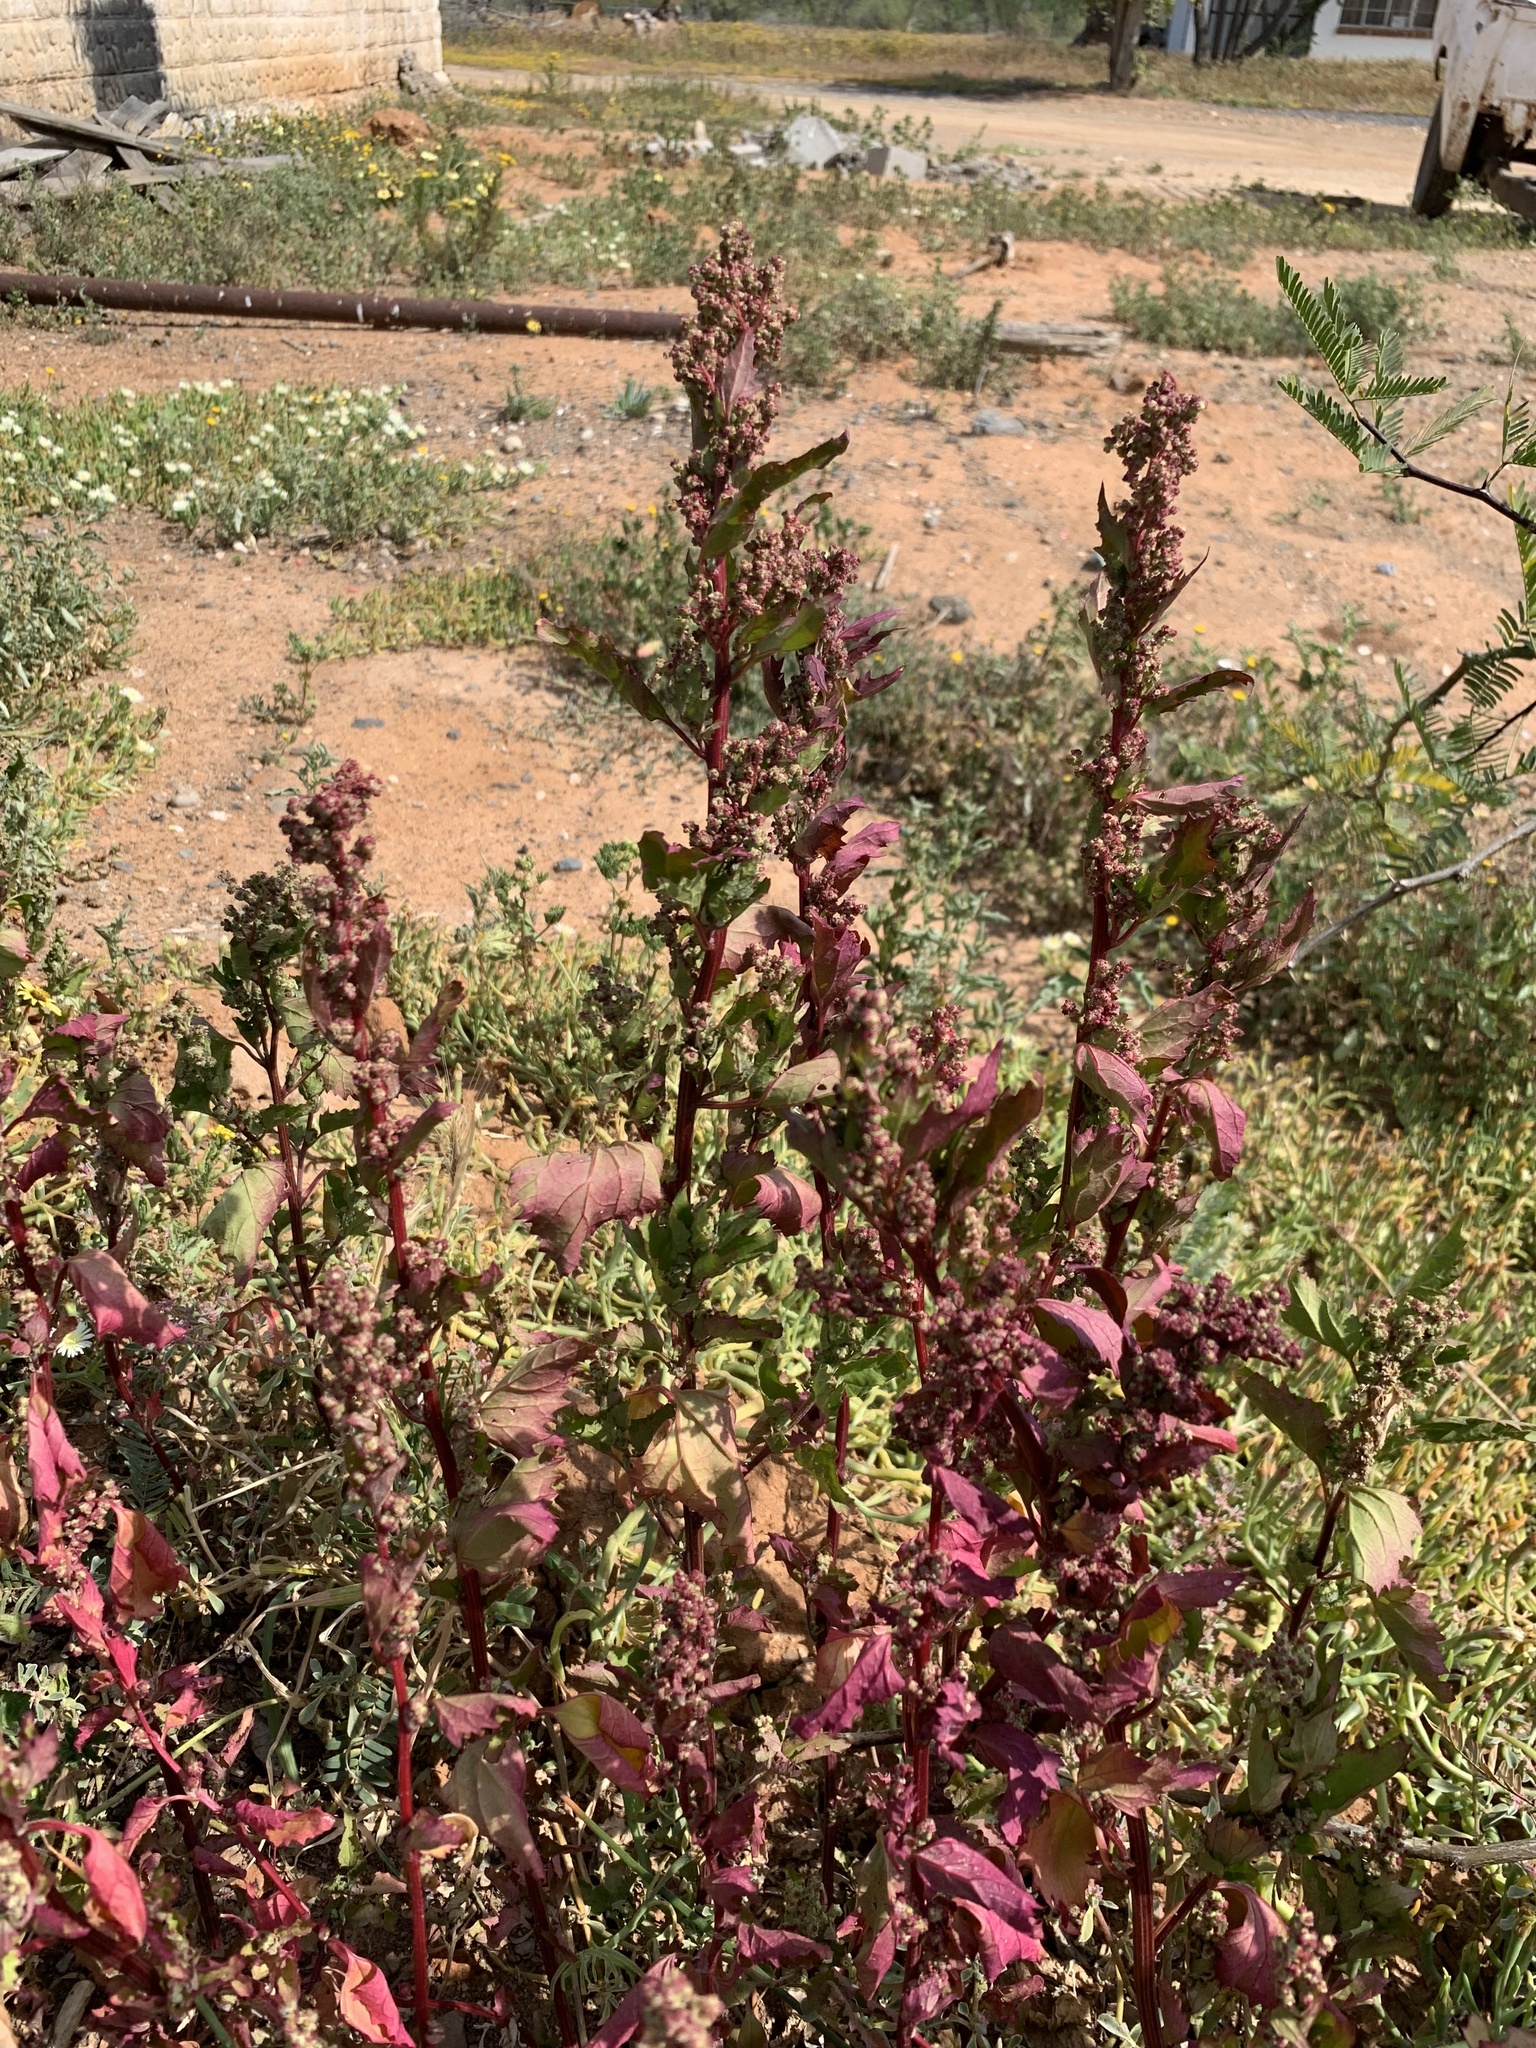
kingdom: Plantae
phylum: Tracheophyta
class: Magnoliopsida
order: Caryophyllales
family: Amaranthaceae
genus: Chenopodiastrum
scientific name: Chenopodiastrum murale
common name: Sowbane
